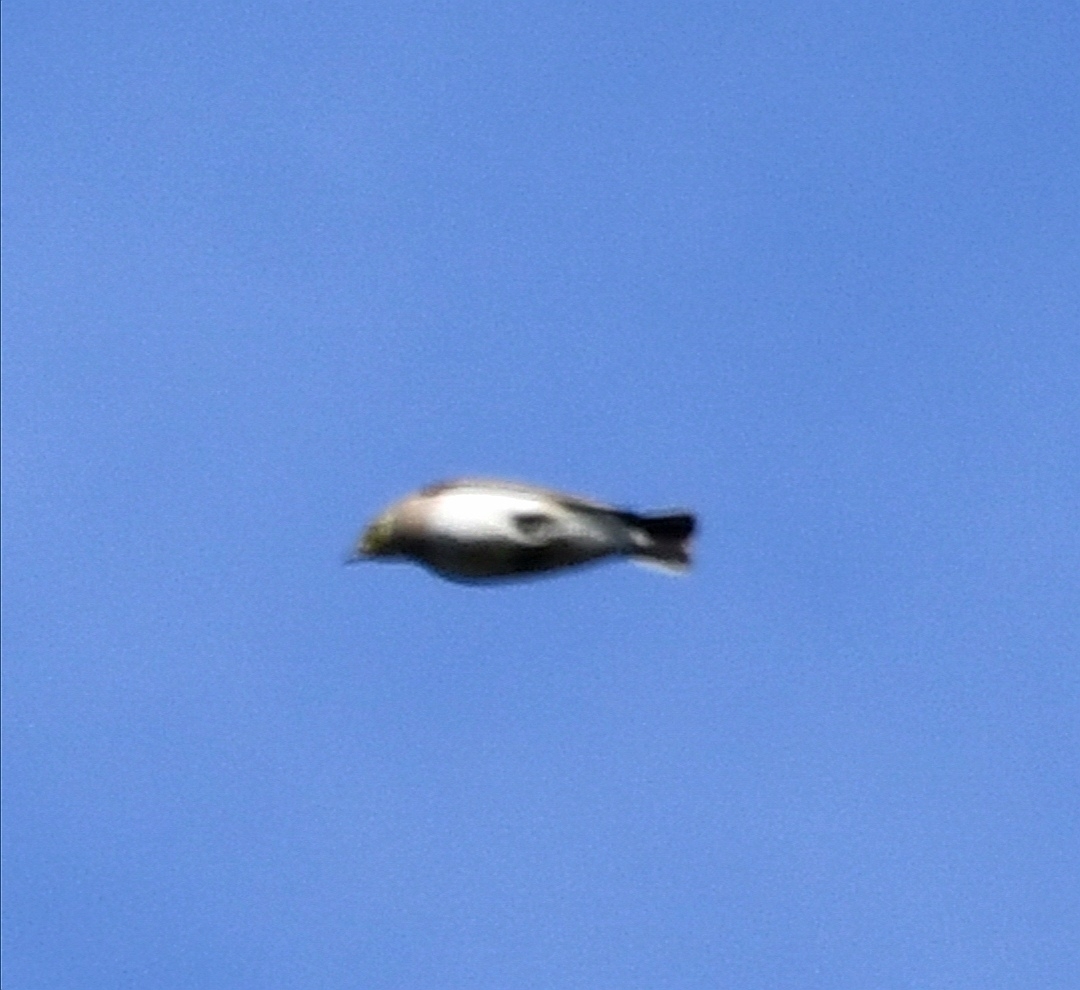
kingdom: Animalia
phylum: Chordata
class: Aves
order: Passeriformes
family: Alaudidae
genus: Eremophila
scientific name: Eremophila alpestris
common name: Horned lark
